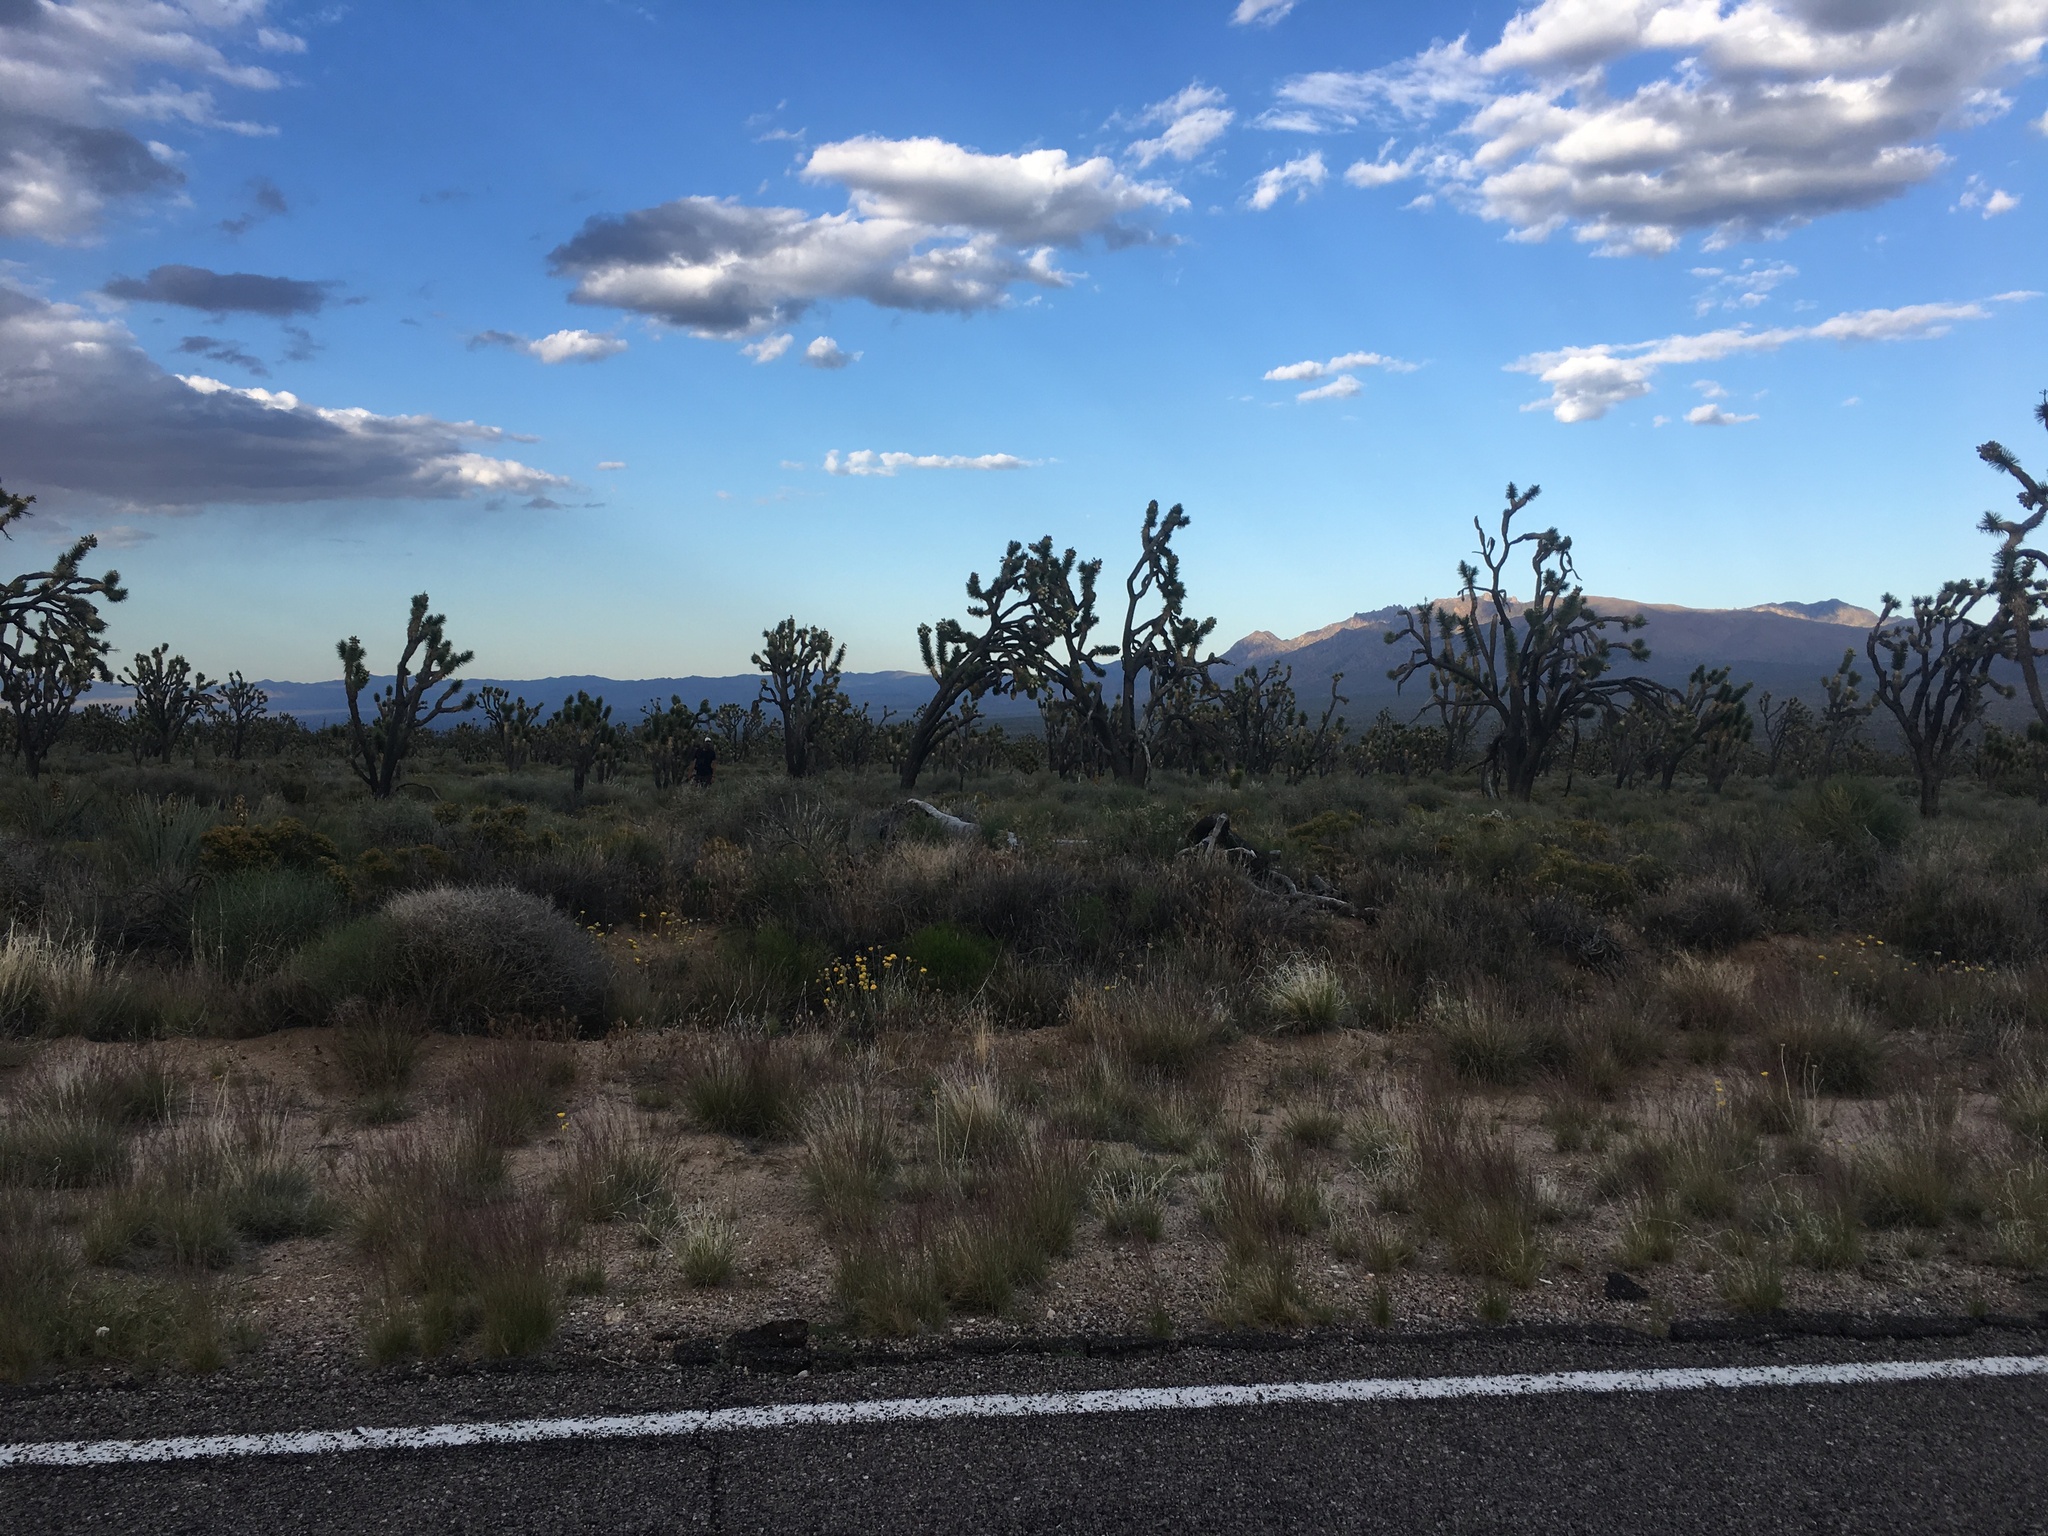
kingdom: Plantae
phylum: Tracheophyta
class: Liliopsida
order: Asparagales
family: Asparagaceae
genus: Yucca
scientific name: Yucca brevifolia
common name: Joshua tree
